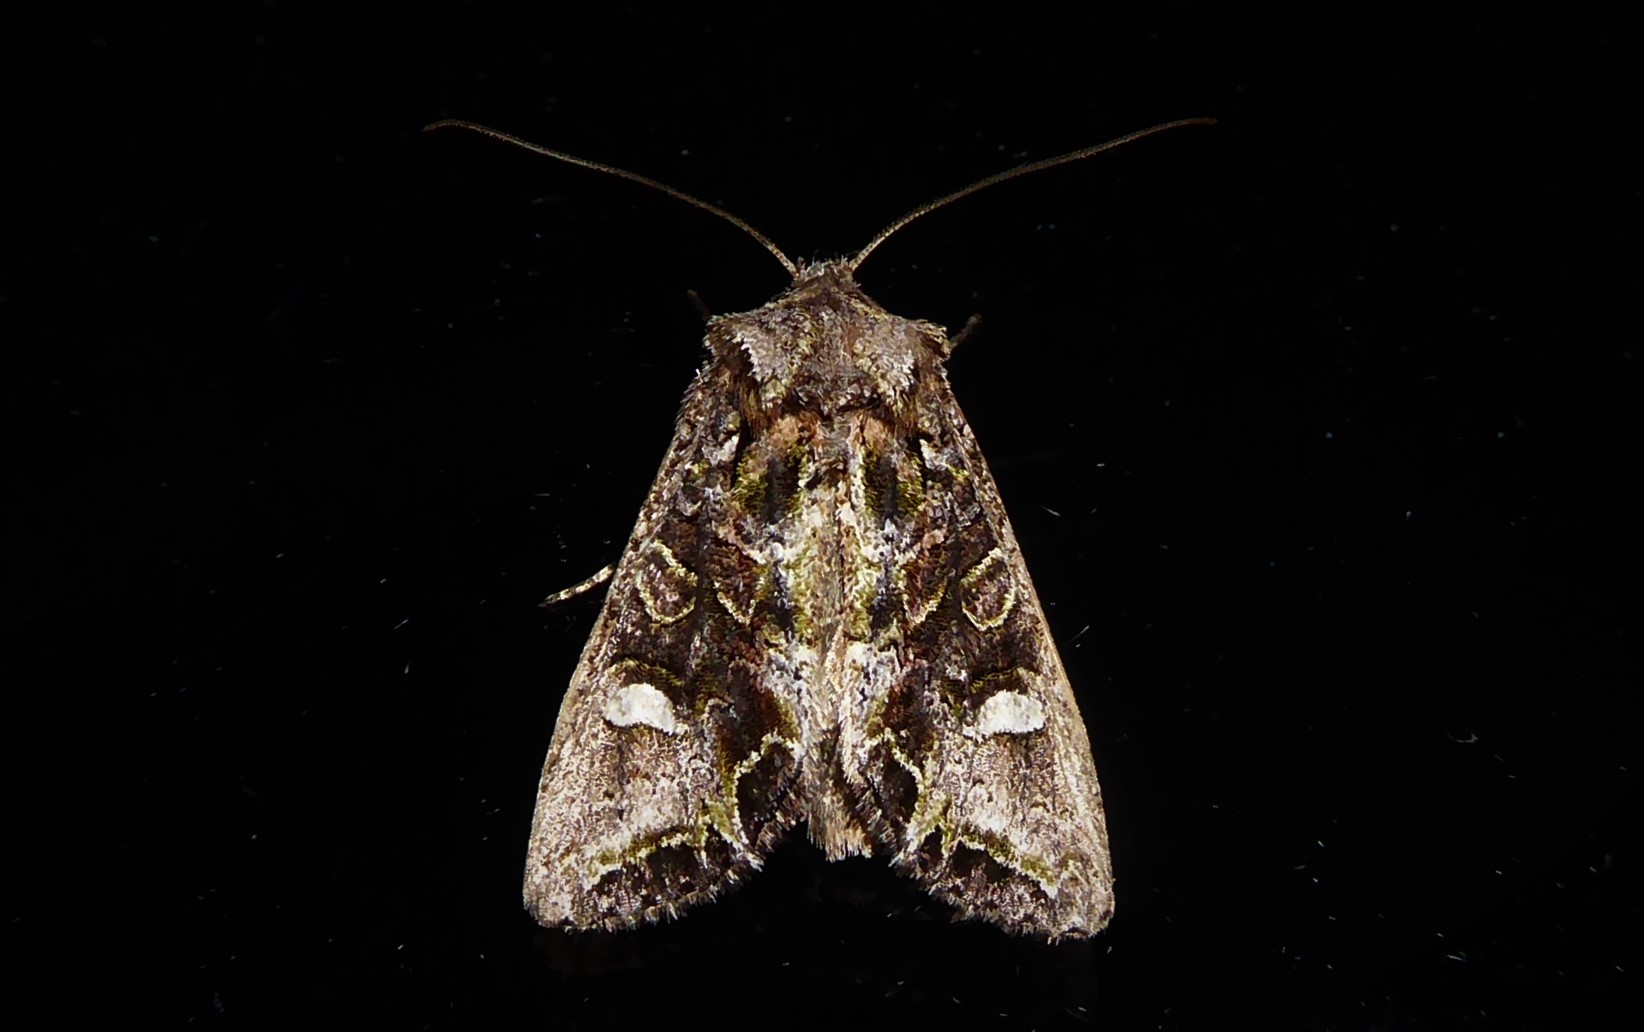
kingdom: Animalia
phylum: Arthropoda
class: Insecta
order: Lepidoptera
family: Noctuidae
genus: Ichneutica
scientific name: Ichneutica insignis
